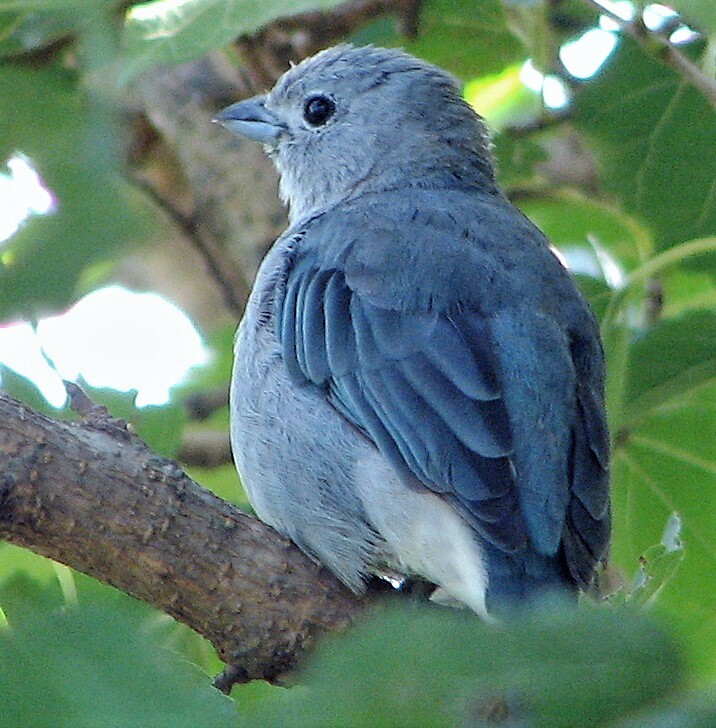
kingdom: Animalia
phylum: Chordata
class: Aves
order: Passeriformes
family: Thraupidae
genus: Thraupis
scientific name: Thraupis sayaca
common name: Sayaca tanager
